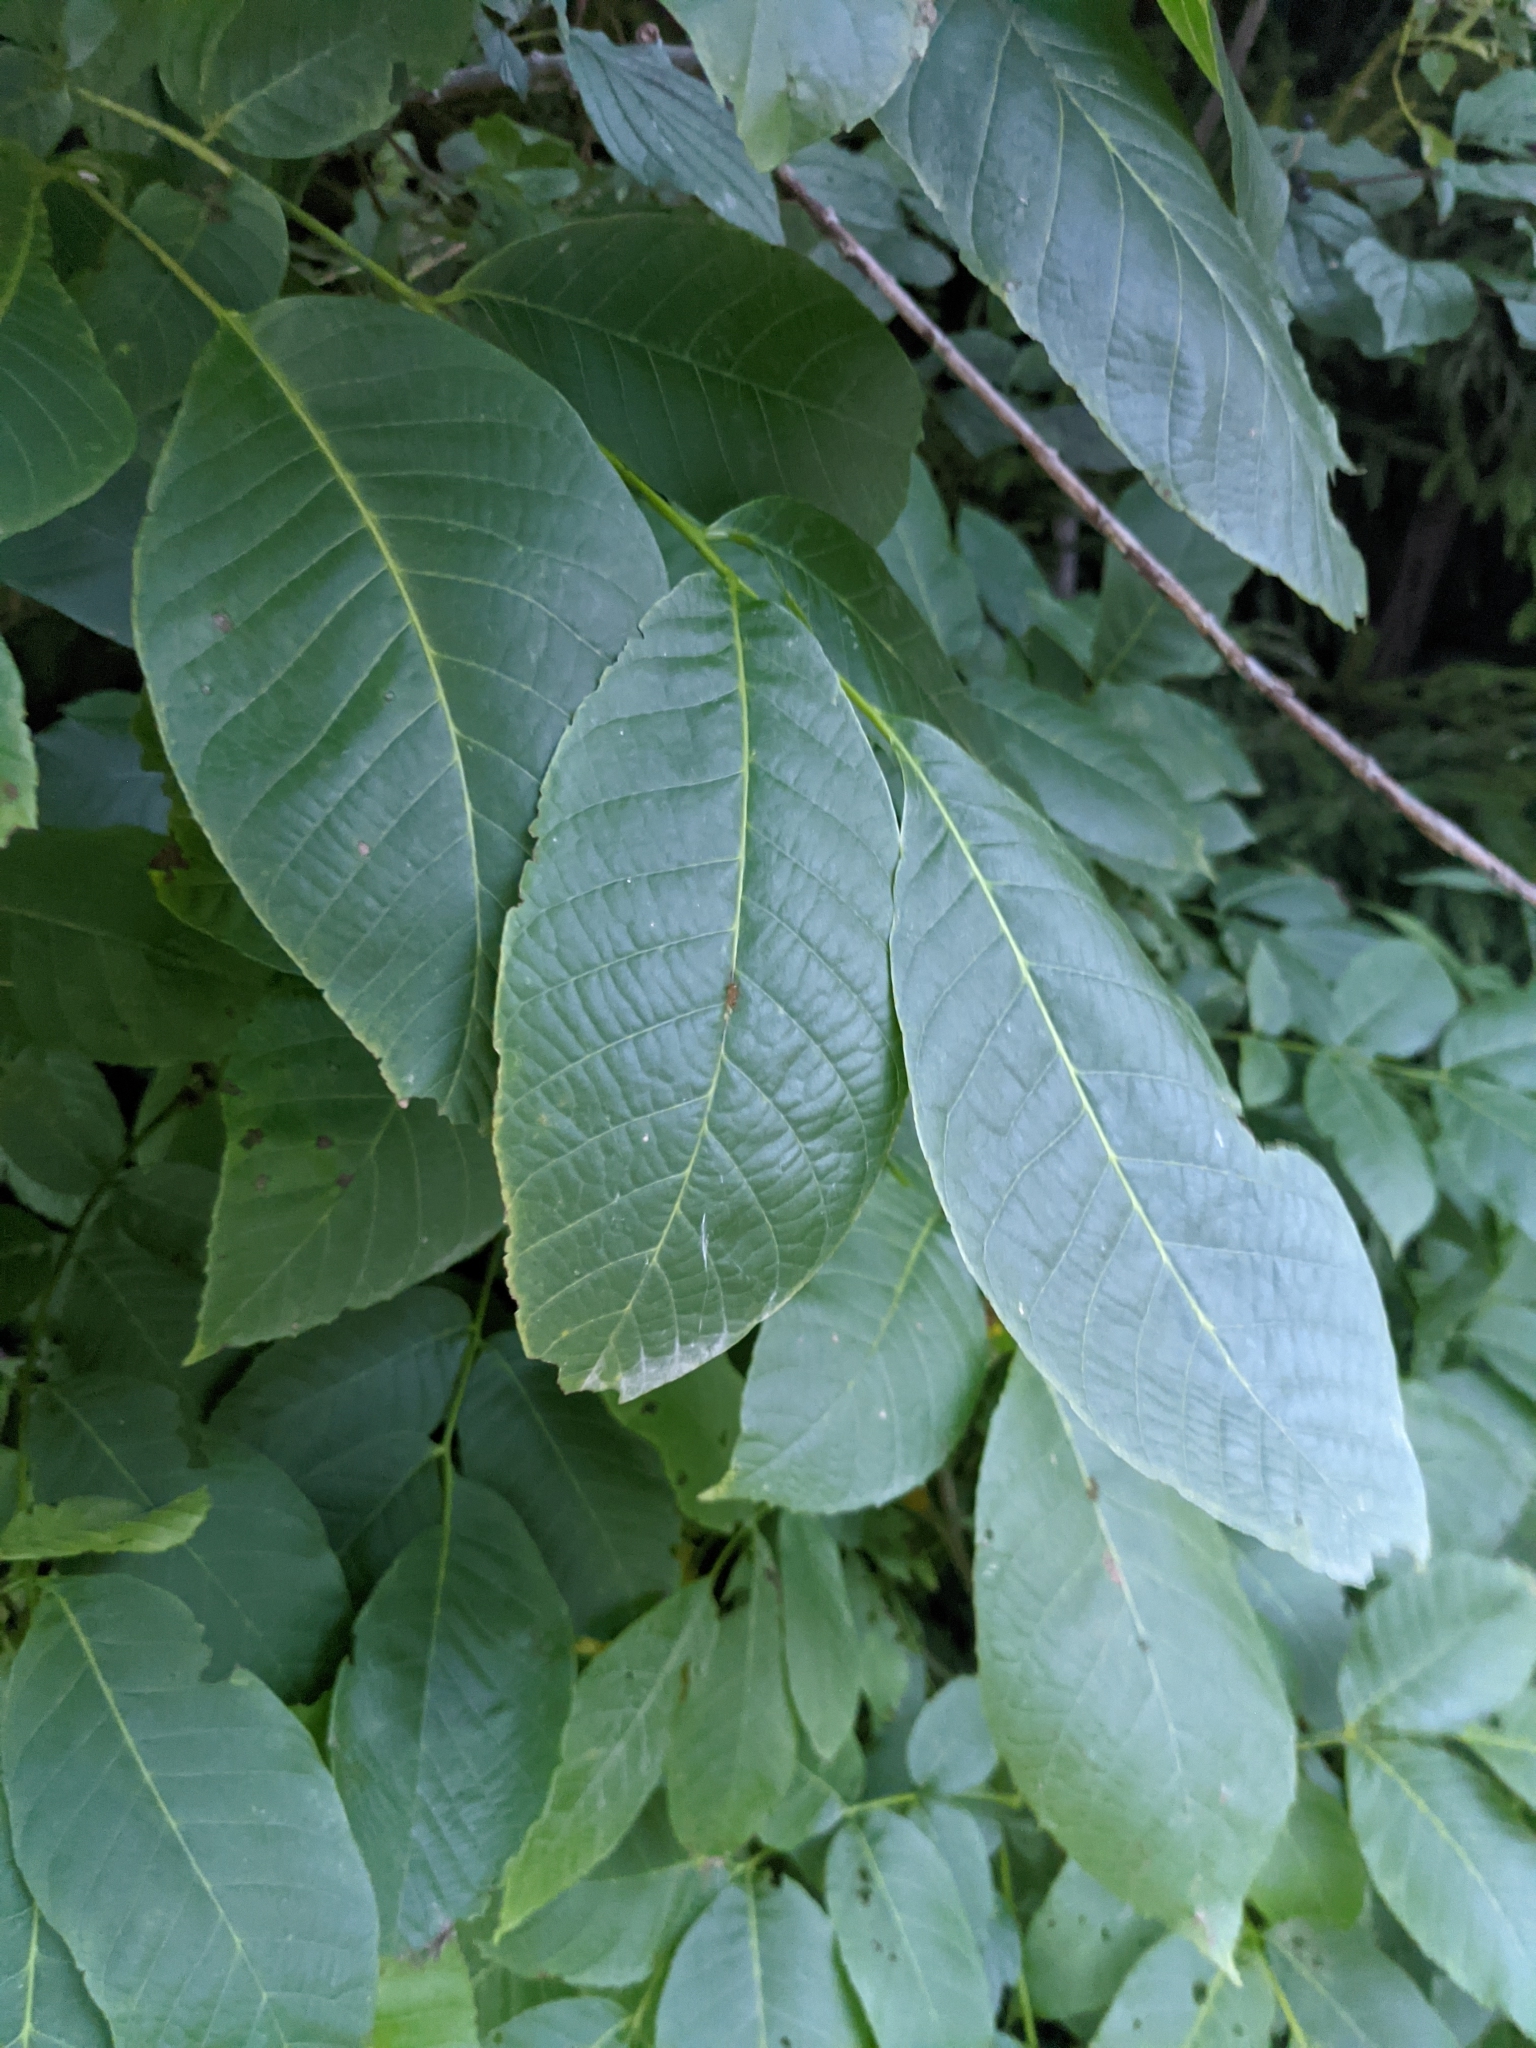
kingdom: Plantae
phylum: Tracheophyta
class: Magnoliopsida
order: Fagales
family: Juglandaceae
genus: Juglans
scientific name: Juglans regia
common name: Walnut
